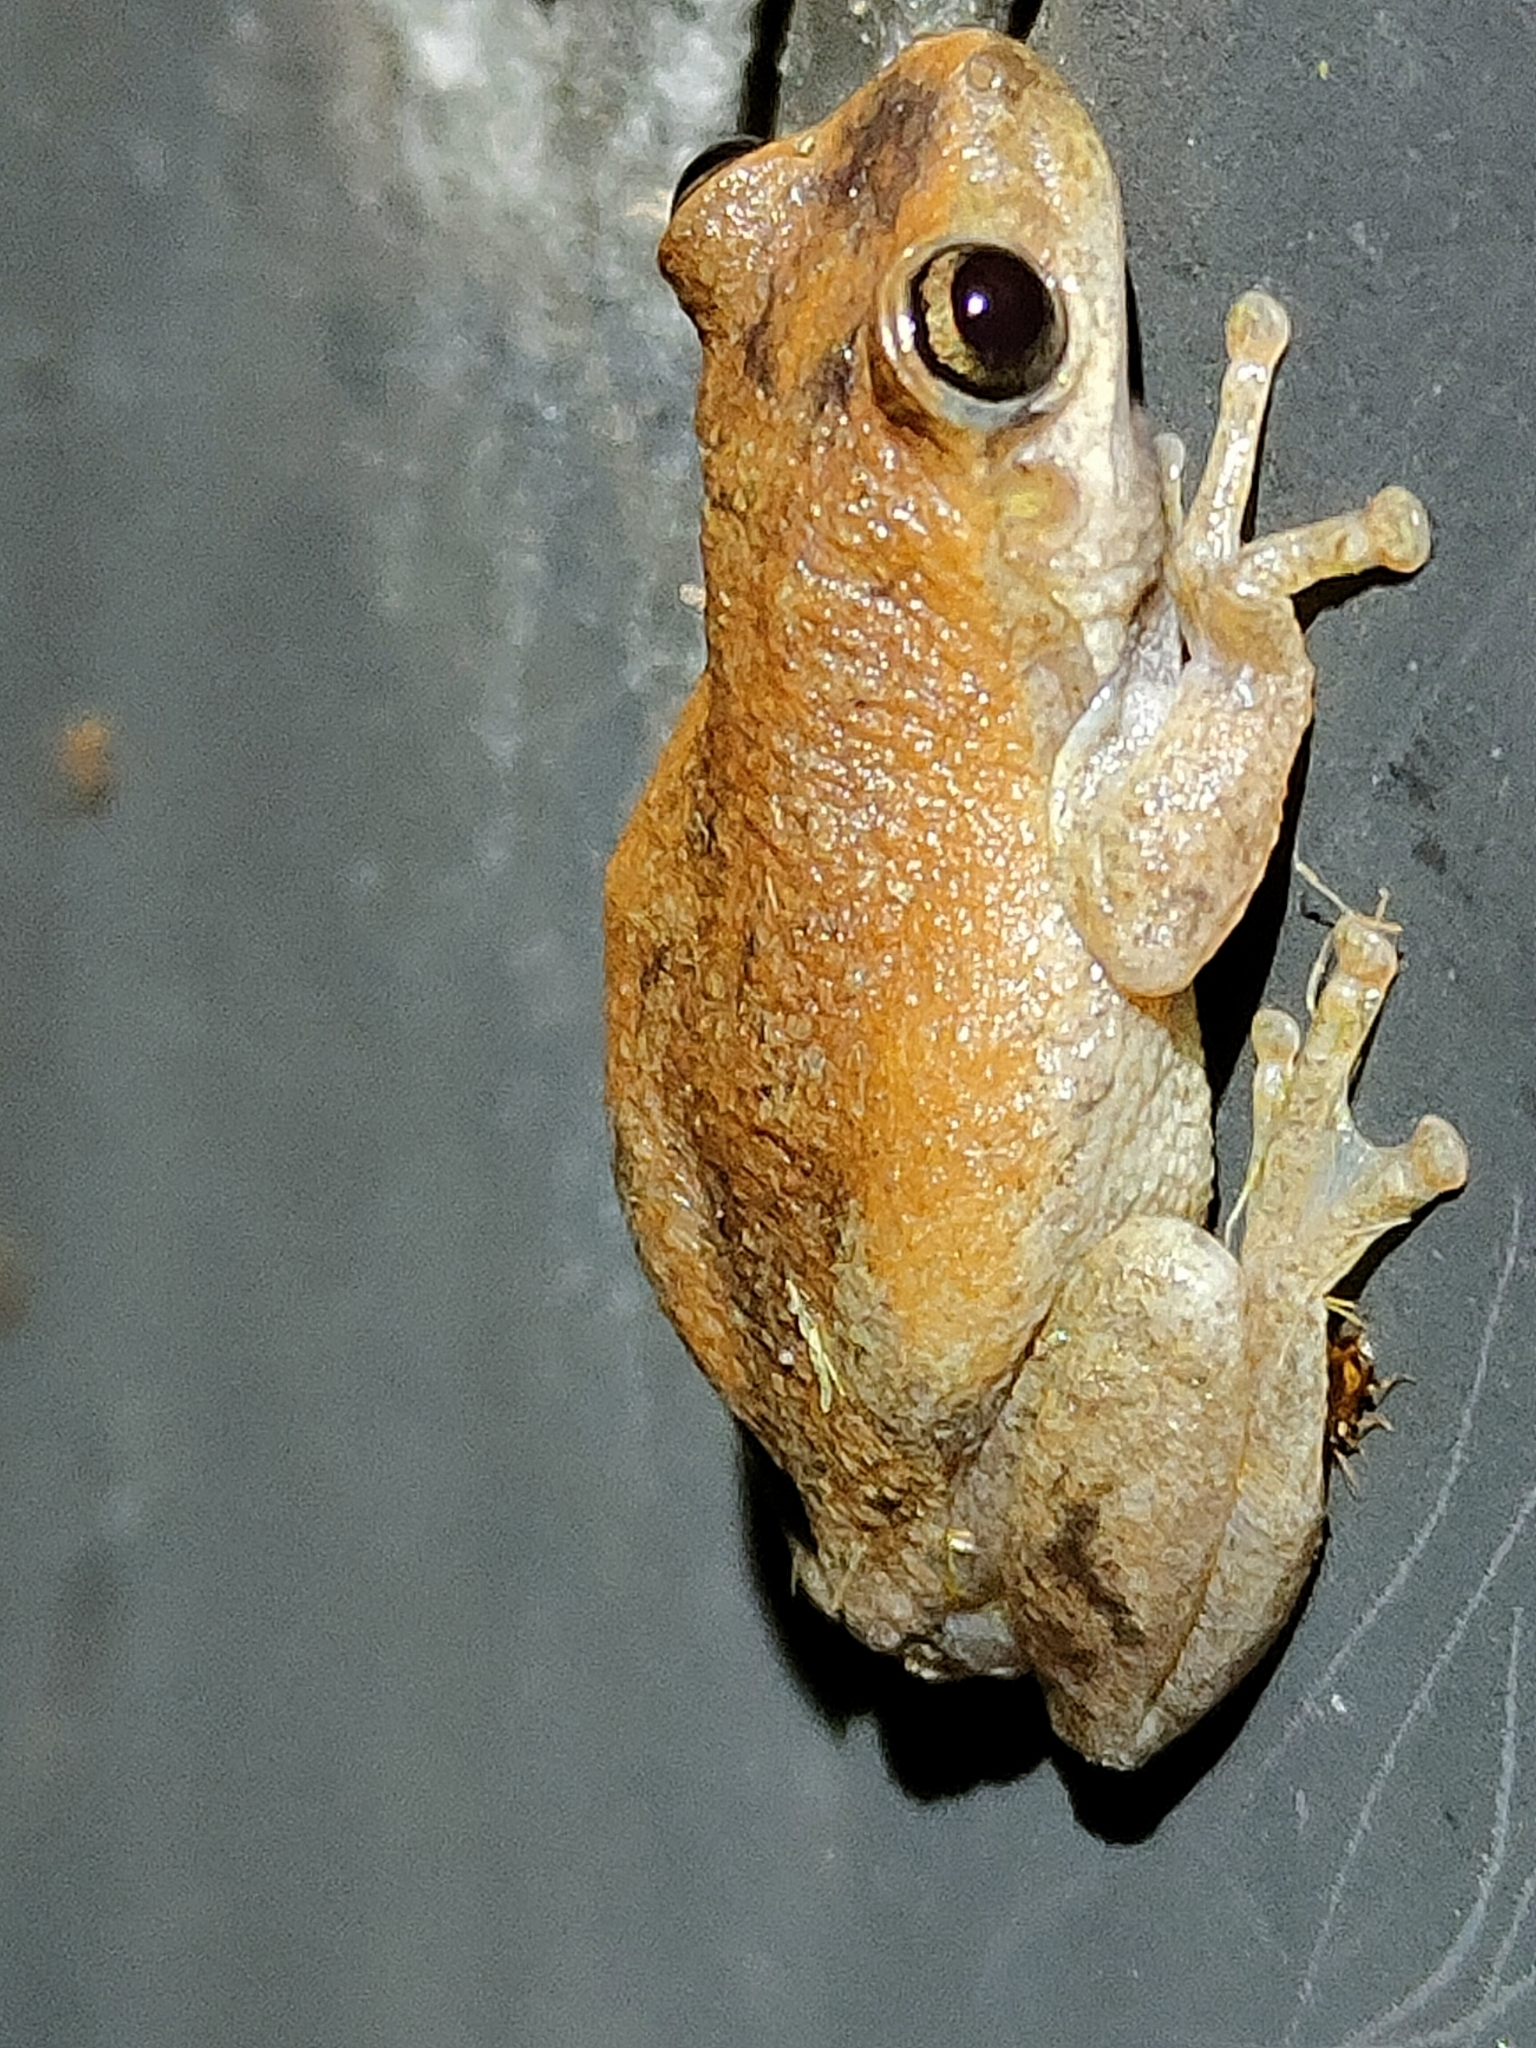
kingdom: Animalia
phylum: Chordata
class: Amphibia
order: Anura
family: Pelodryadidae
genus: Litoria
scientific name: Litoria rubella
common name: Desert tree frog
